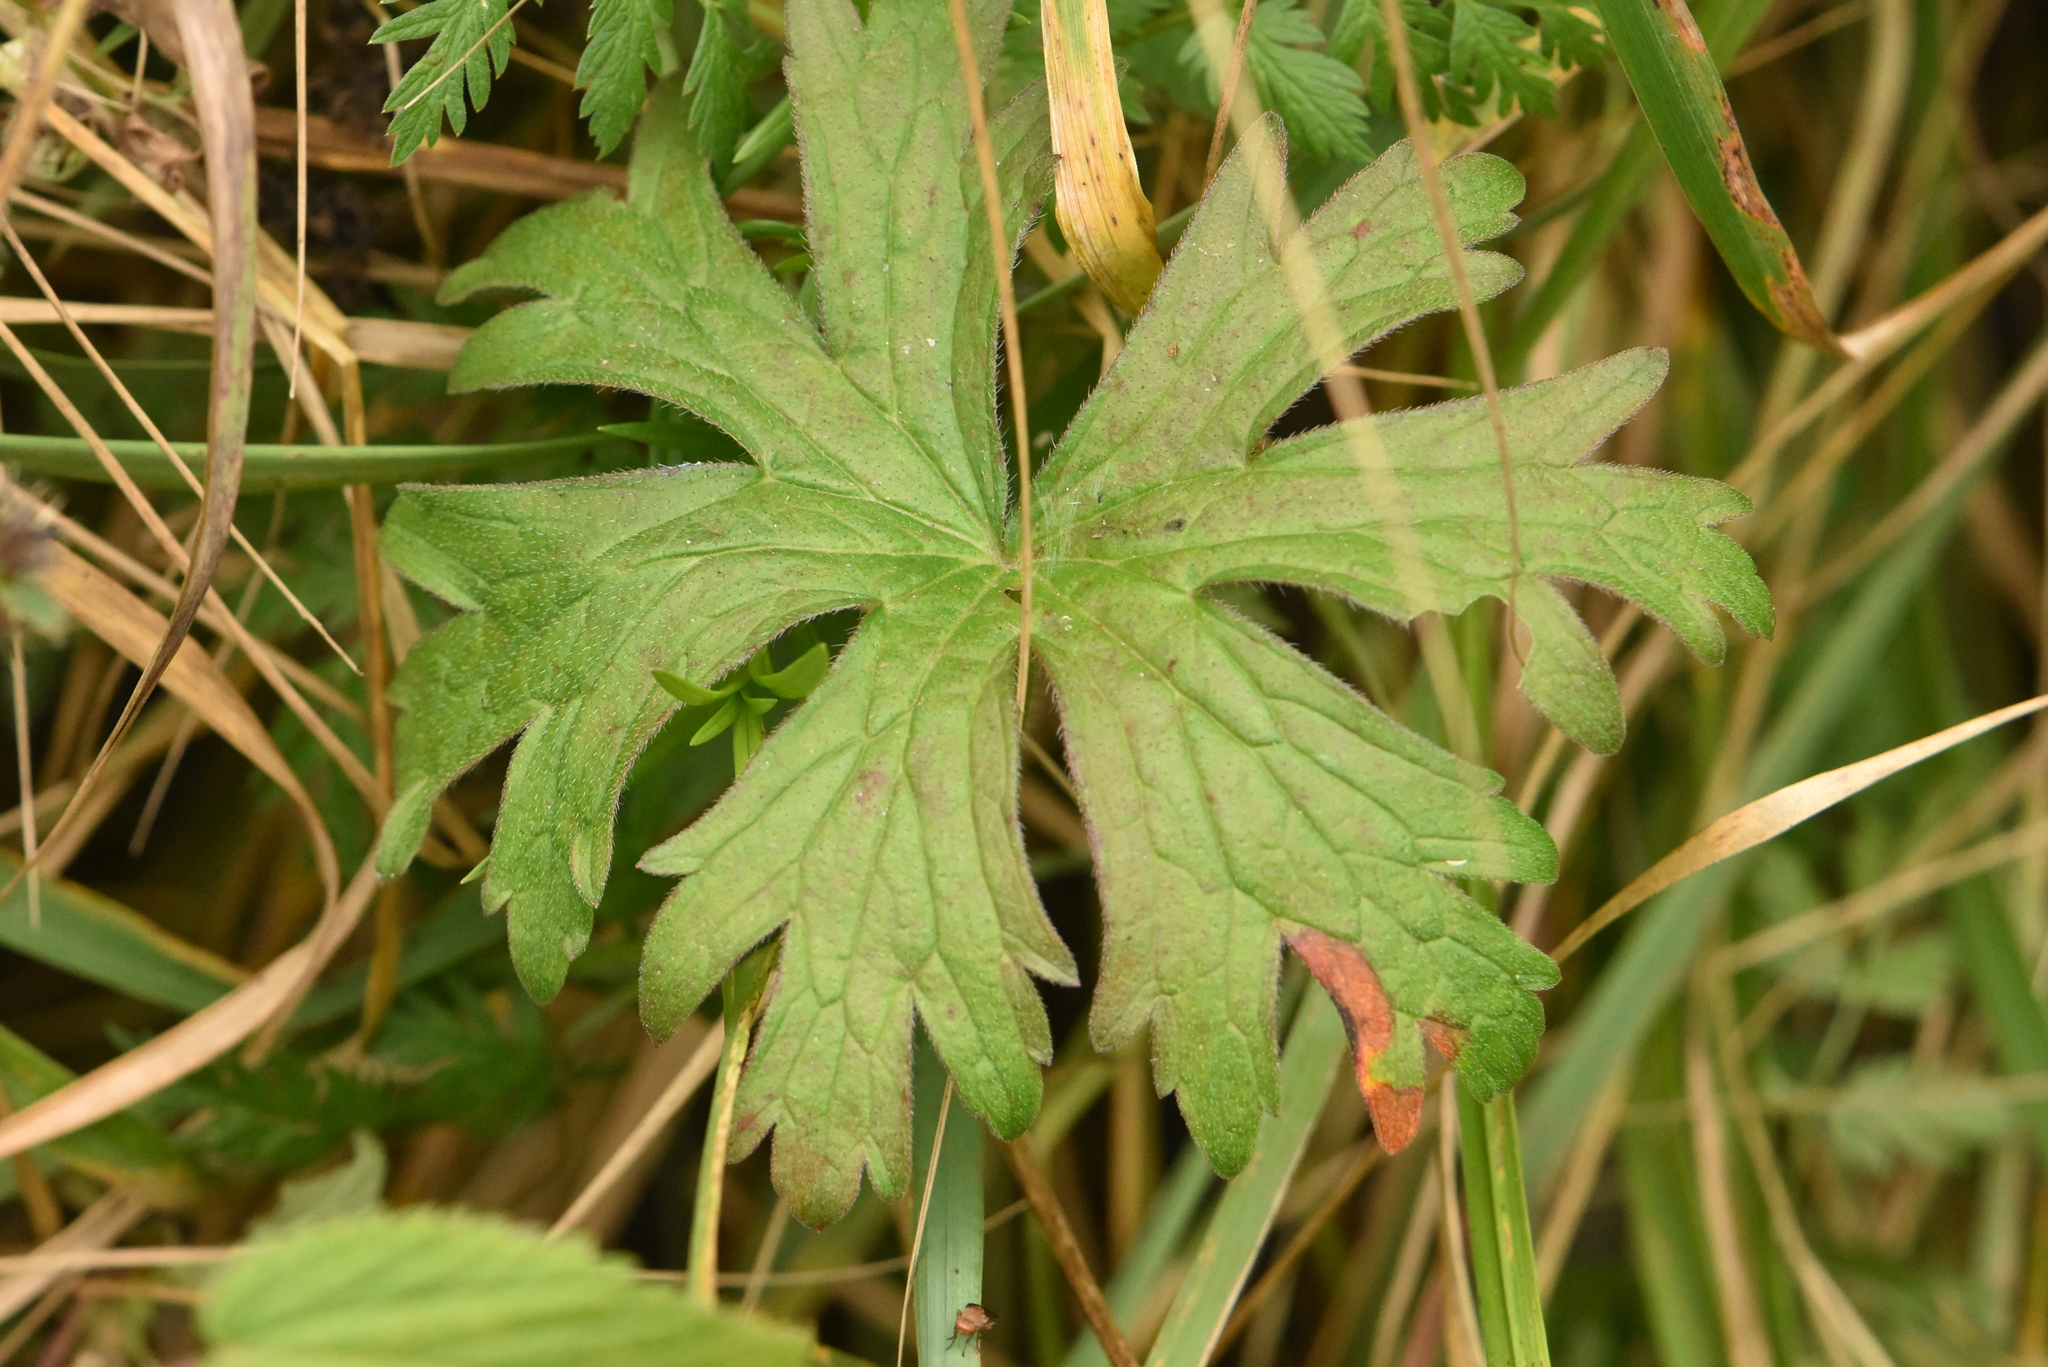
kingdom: Plantae
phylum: Tracheophyta
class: Magnoliopsida
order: Geraniales
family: Geraniaceae
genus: Geranium
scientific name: Geranium pratense
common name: Meadow crane's-bill
